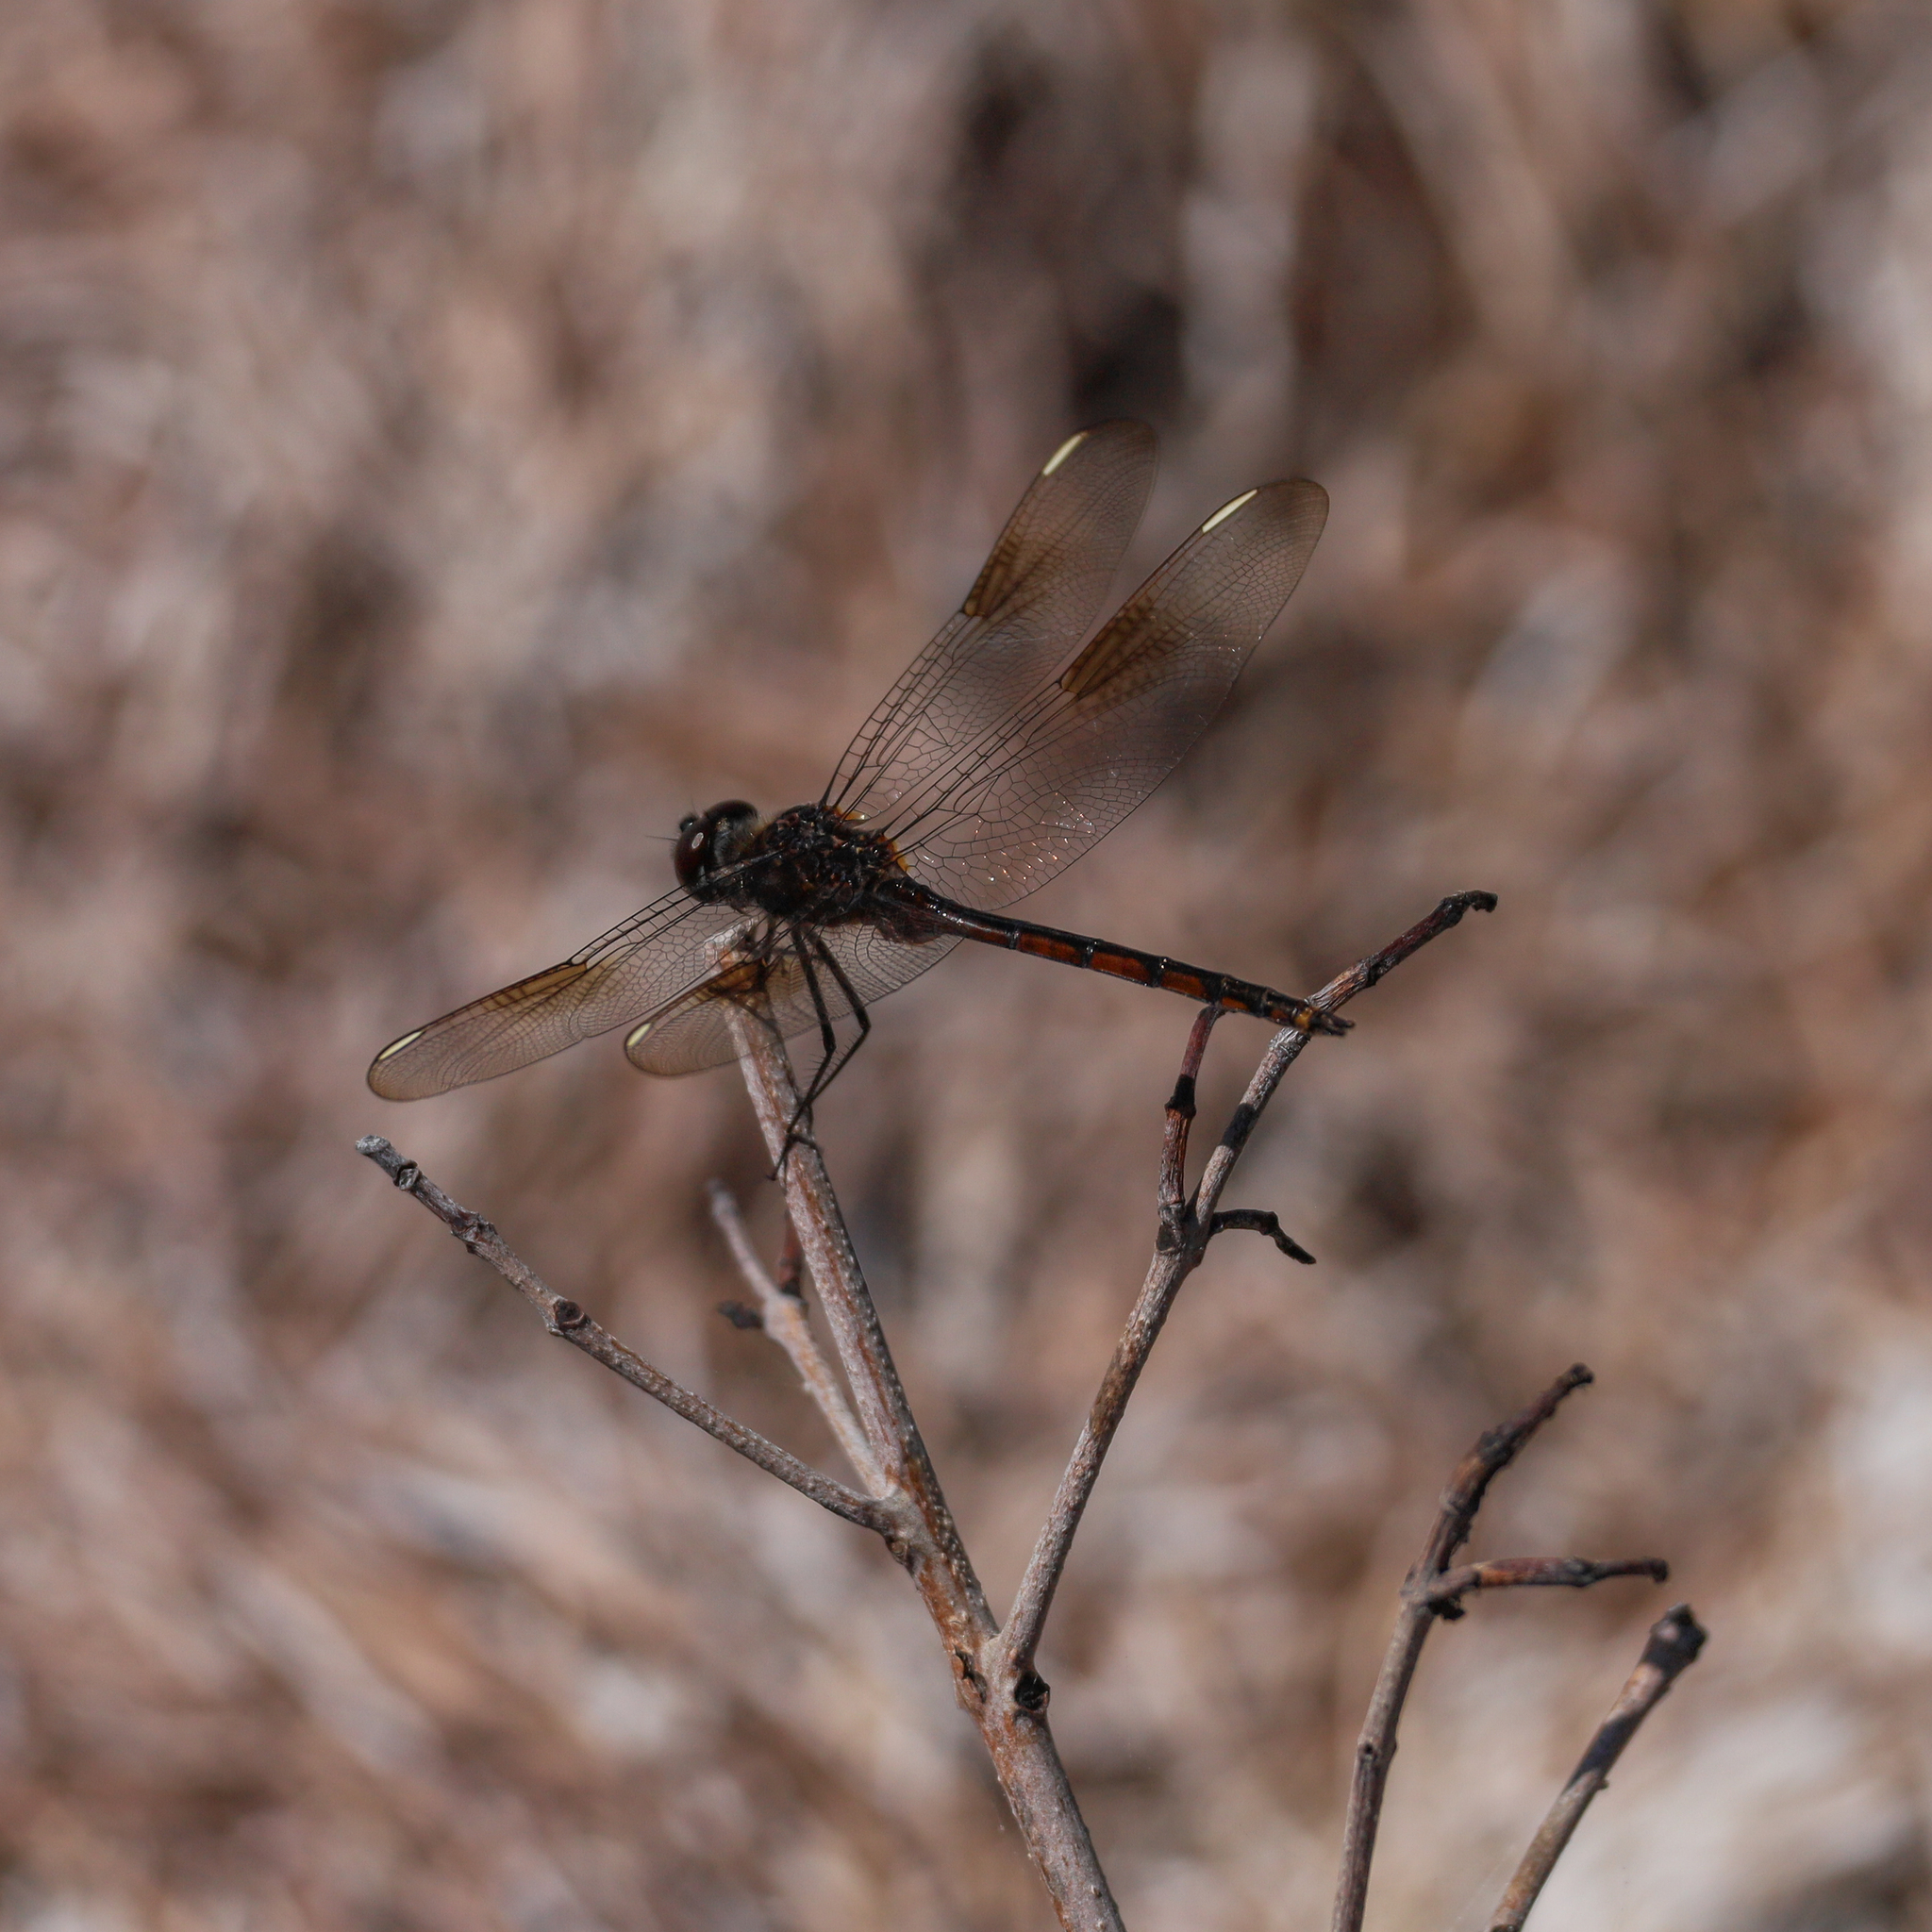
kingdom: Animalia
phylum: Arthropoda
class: Insecta
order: Odonata
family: Libellulidae
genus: Brachymesia
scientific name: Brachymesia gravida
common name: Four-spotted pennant
